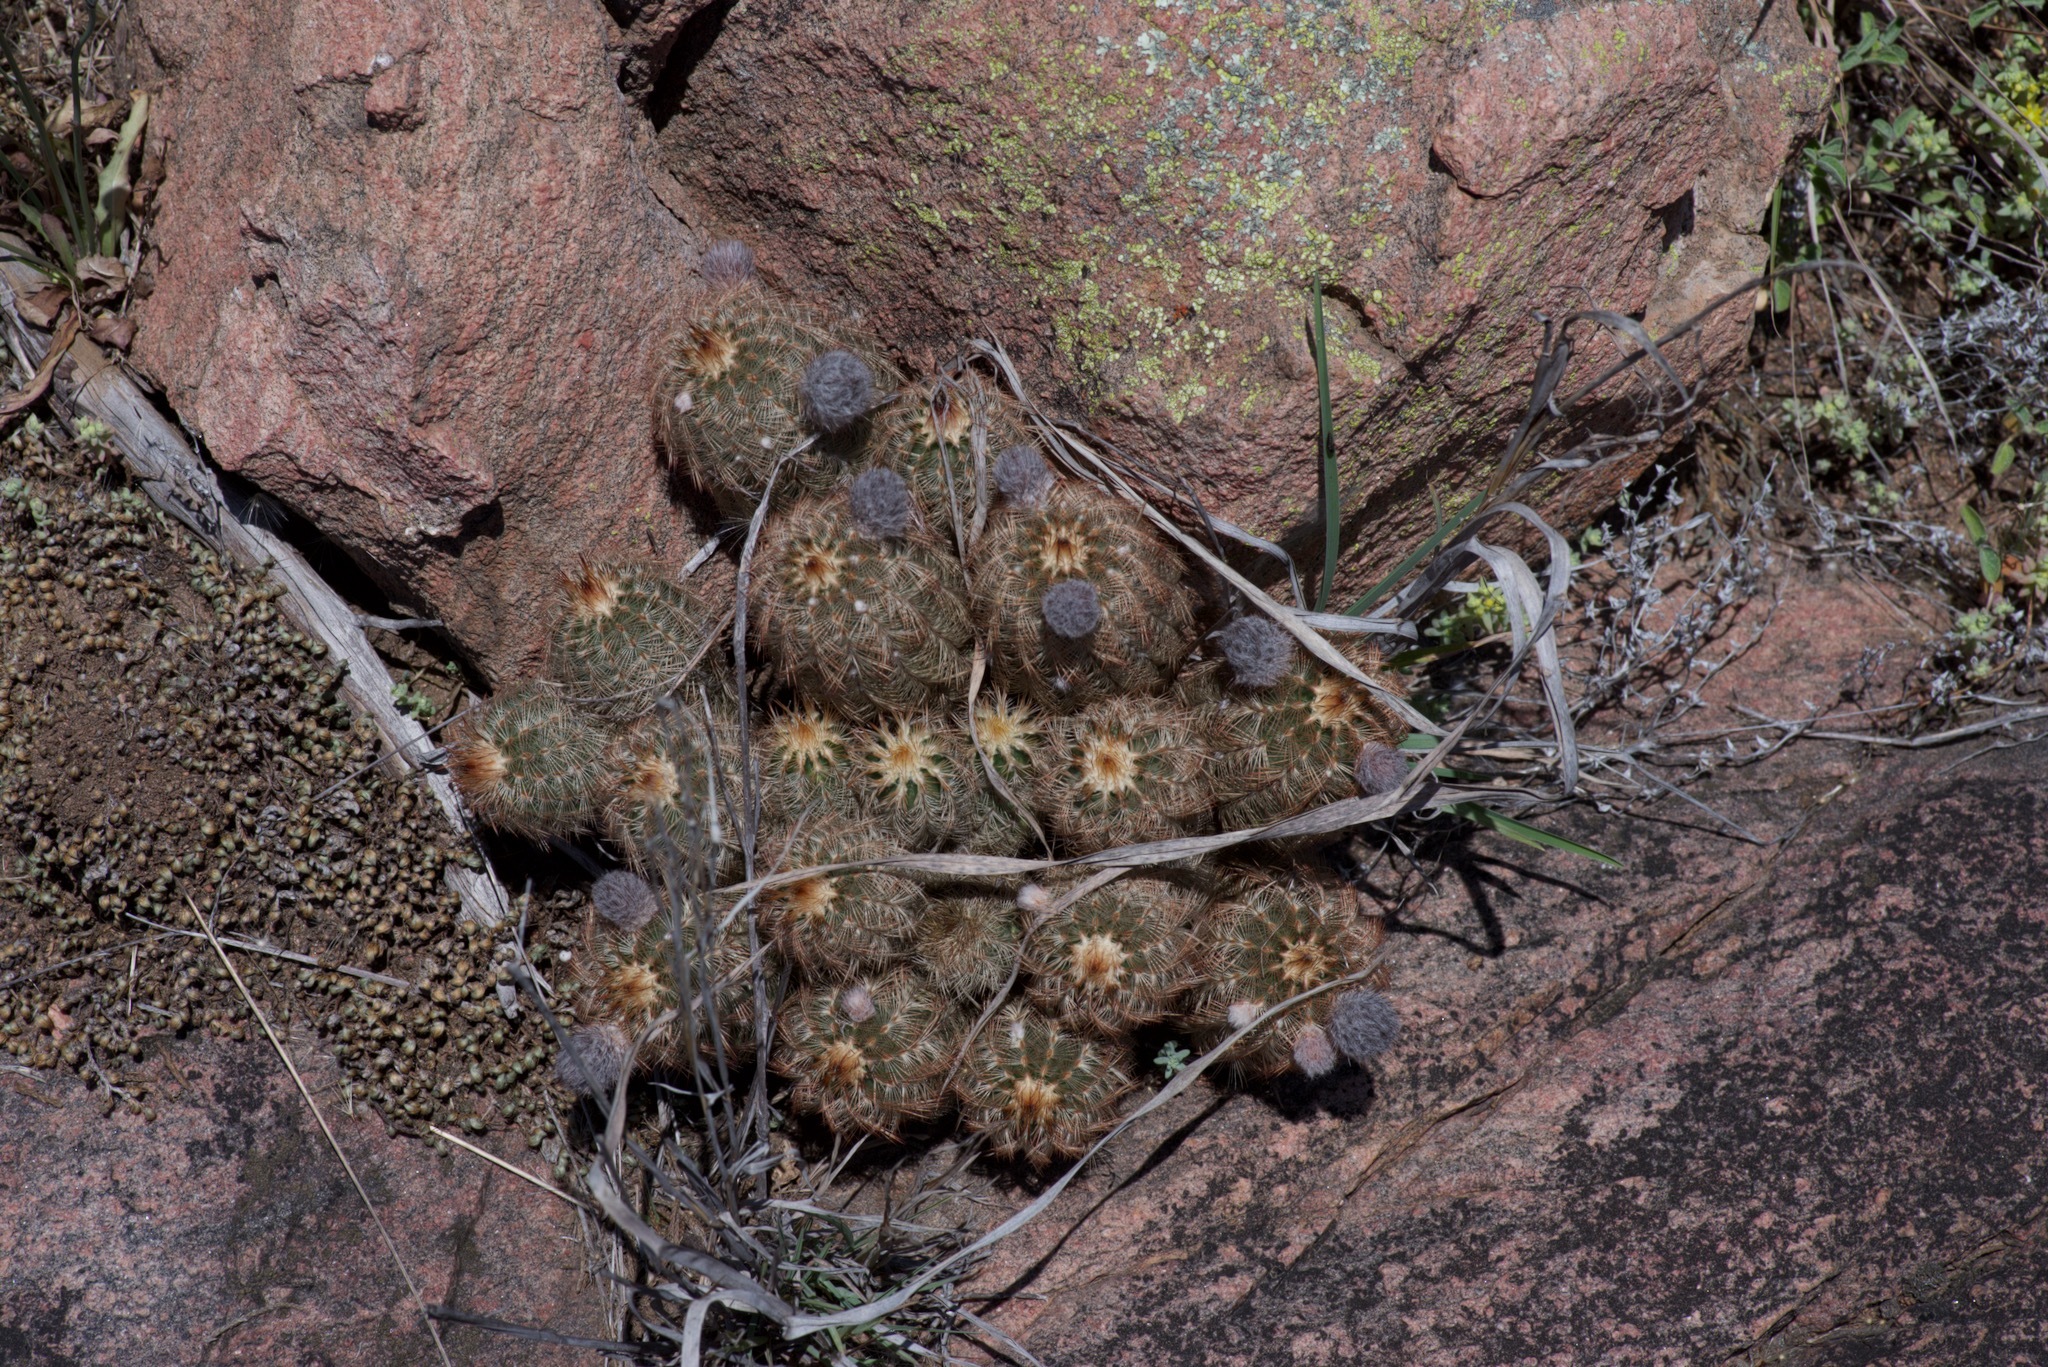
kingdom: Plantae
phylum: Tracheophyta
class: Magnoliopsida
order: Caryophyllales
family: Cactaceae
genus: Echinocereus
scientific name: Echinocereus reichenbachii
